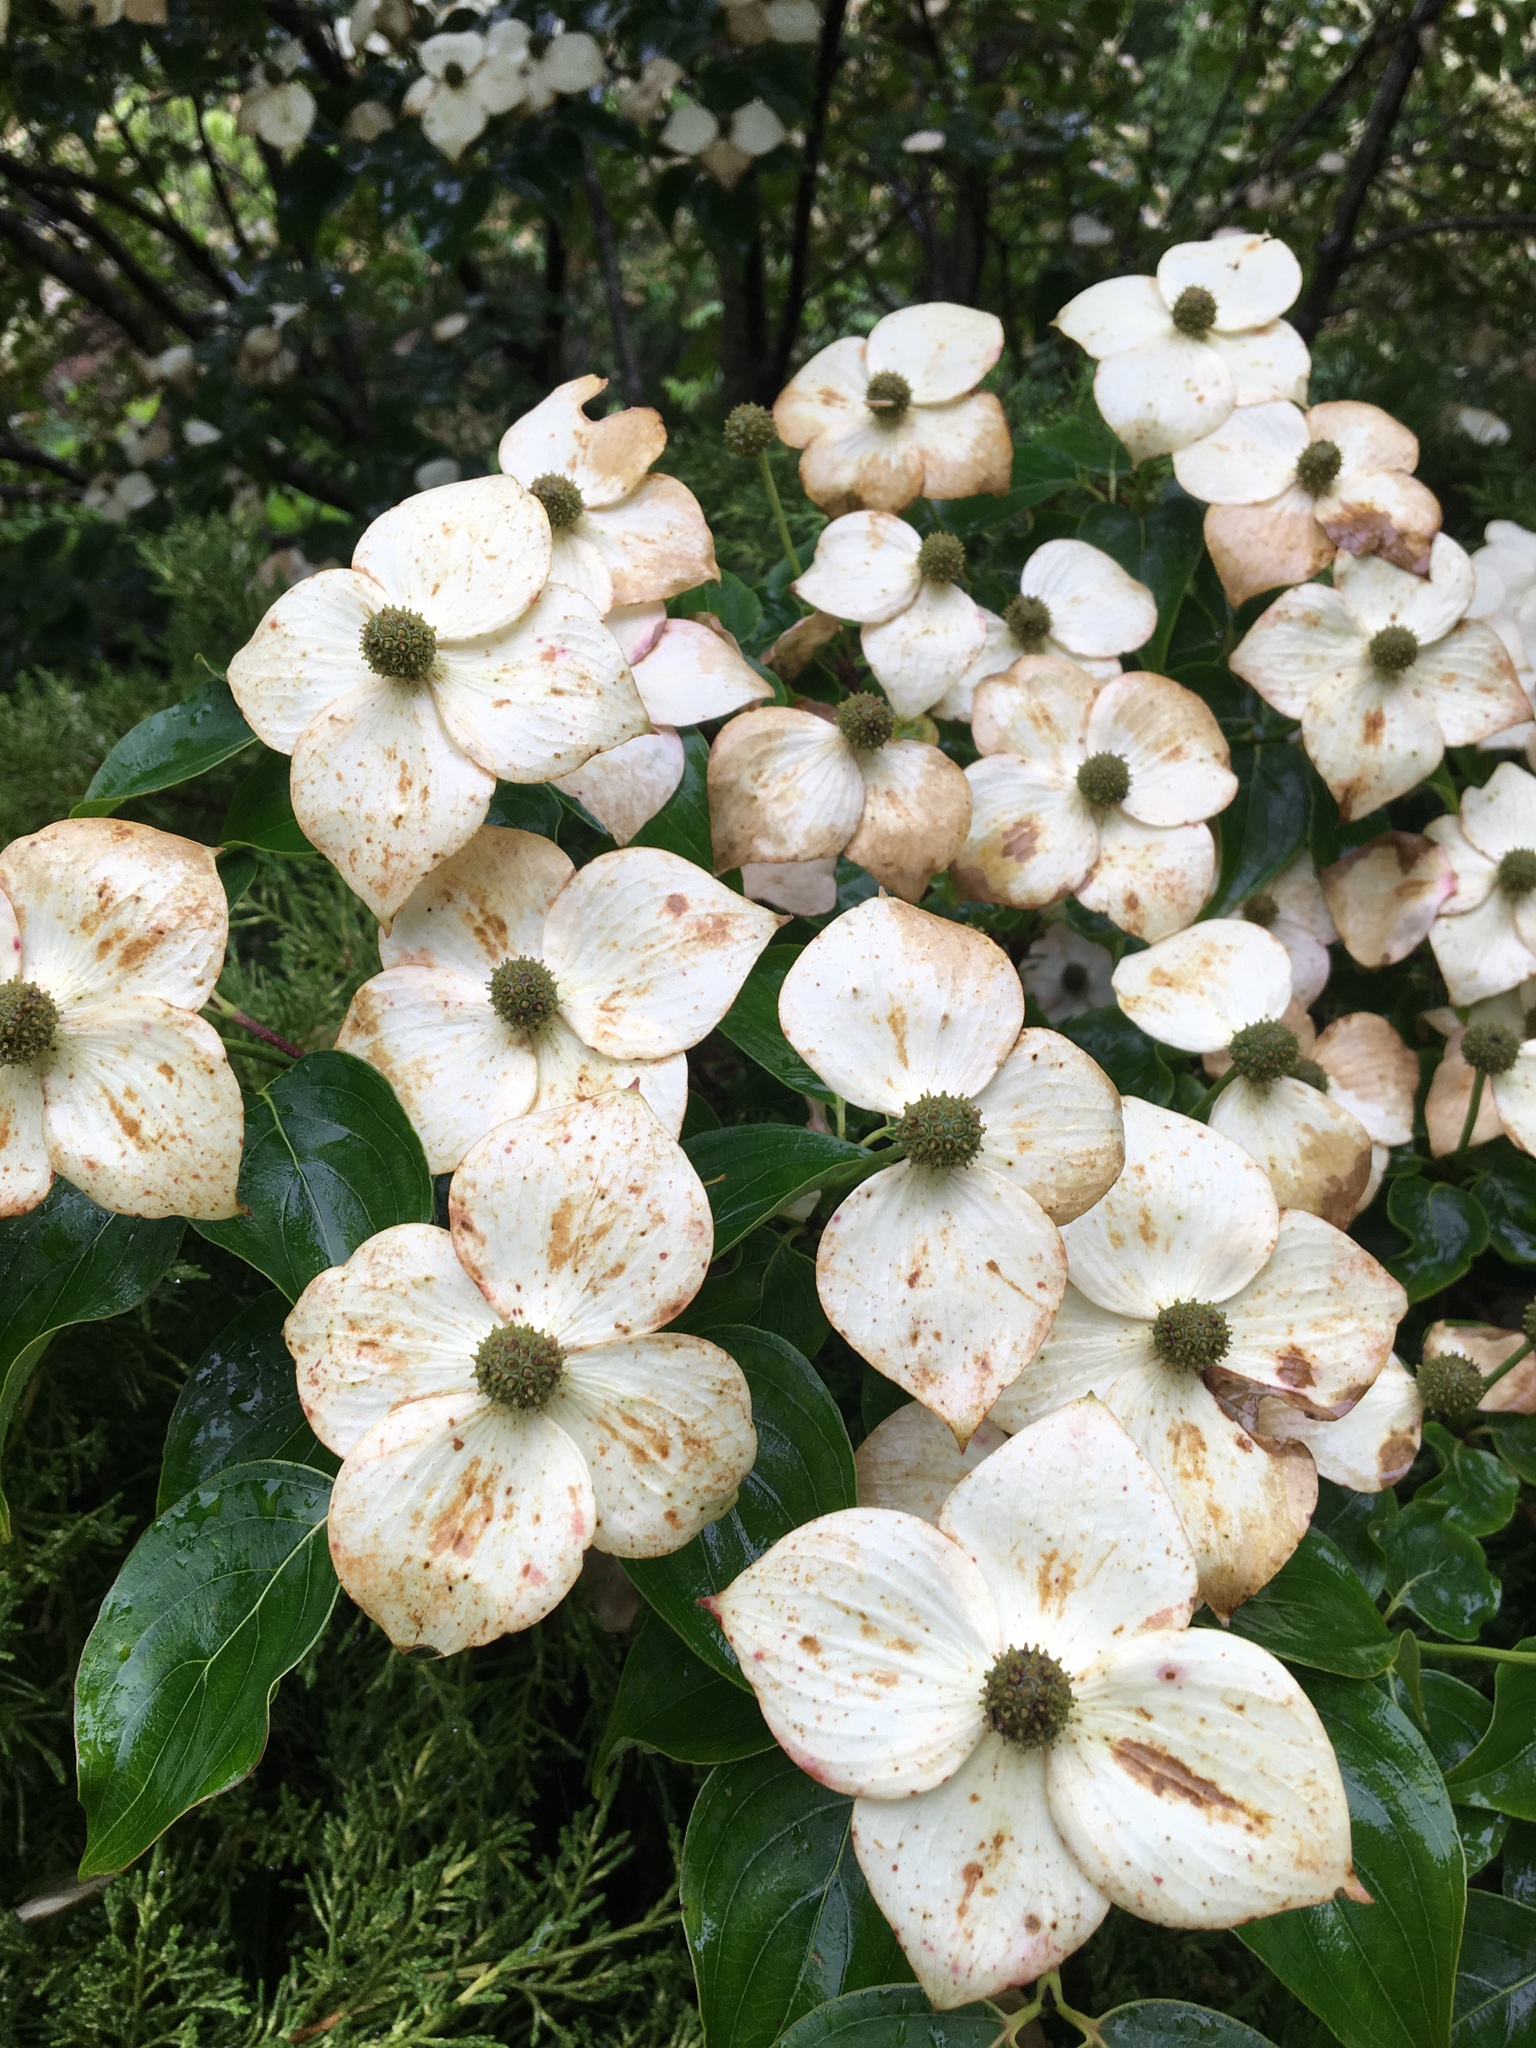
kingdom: Plantae
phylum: Tracheophyta
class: Magnoliopsida
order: Cornales
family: Cornaceae
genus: Cornus
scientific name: Cornus florida
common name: Flowering dogwood
